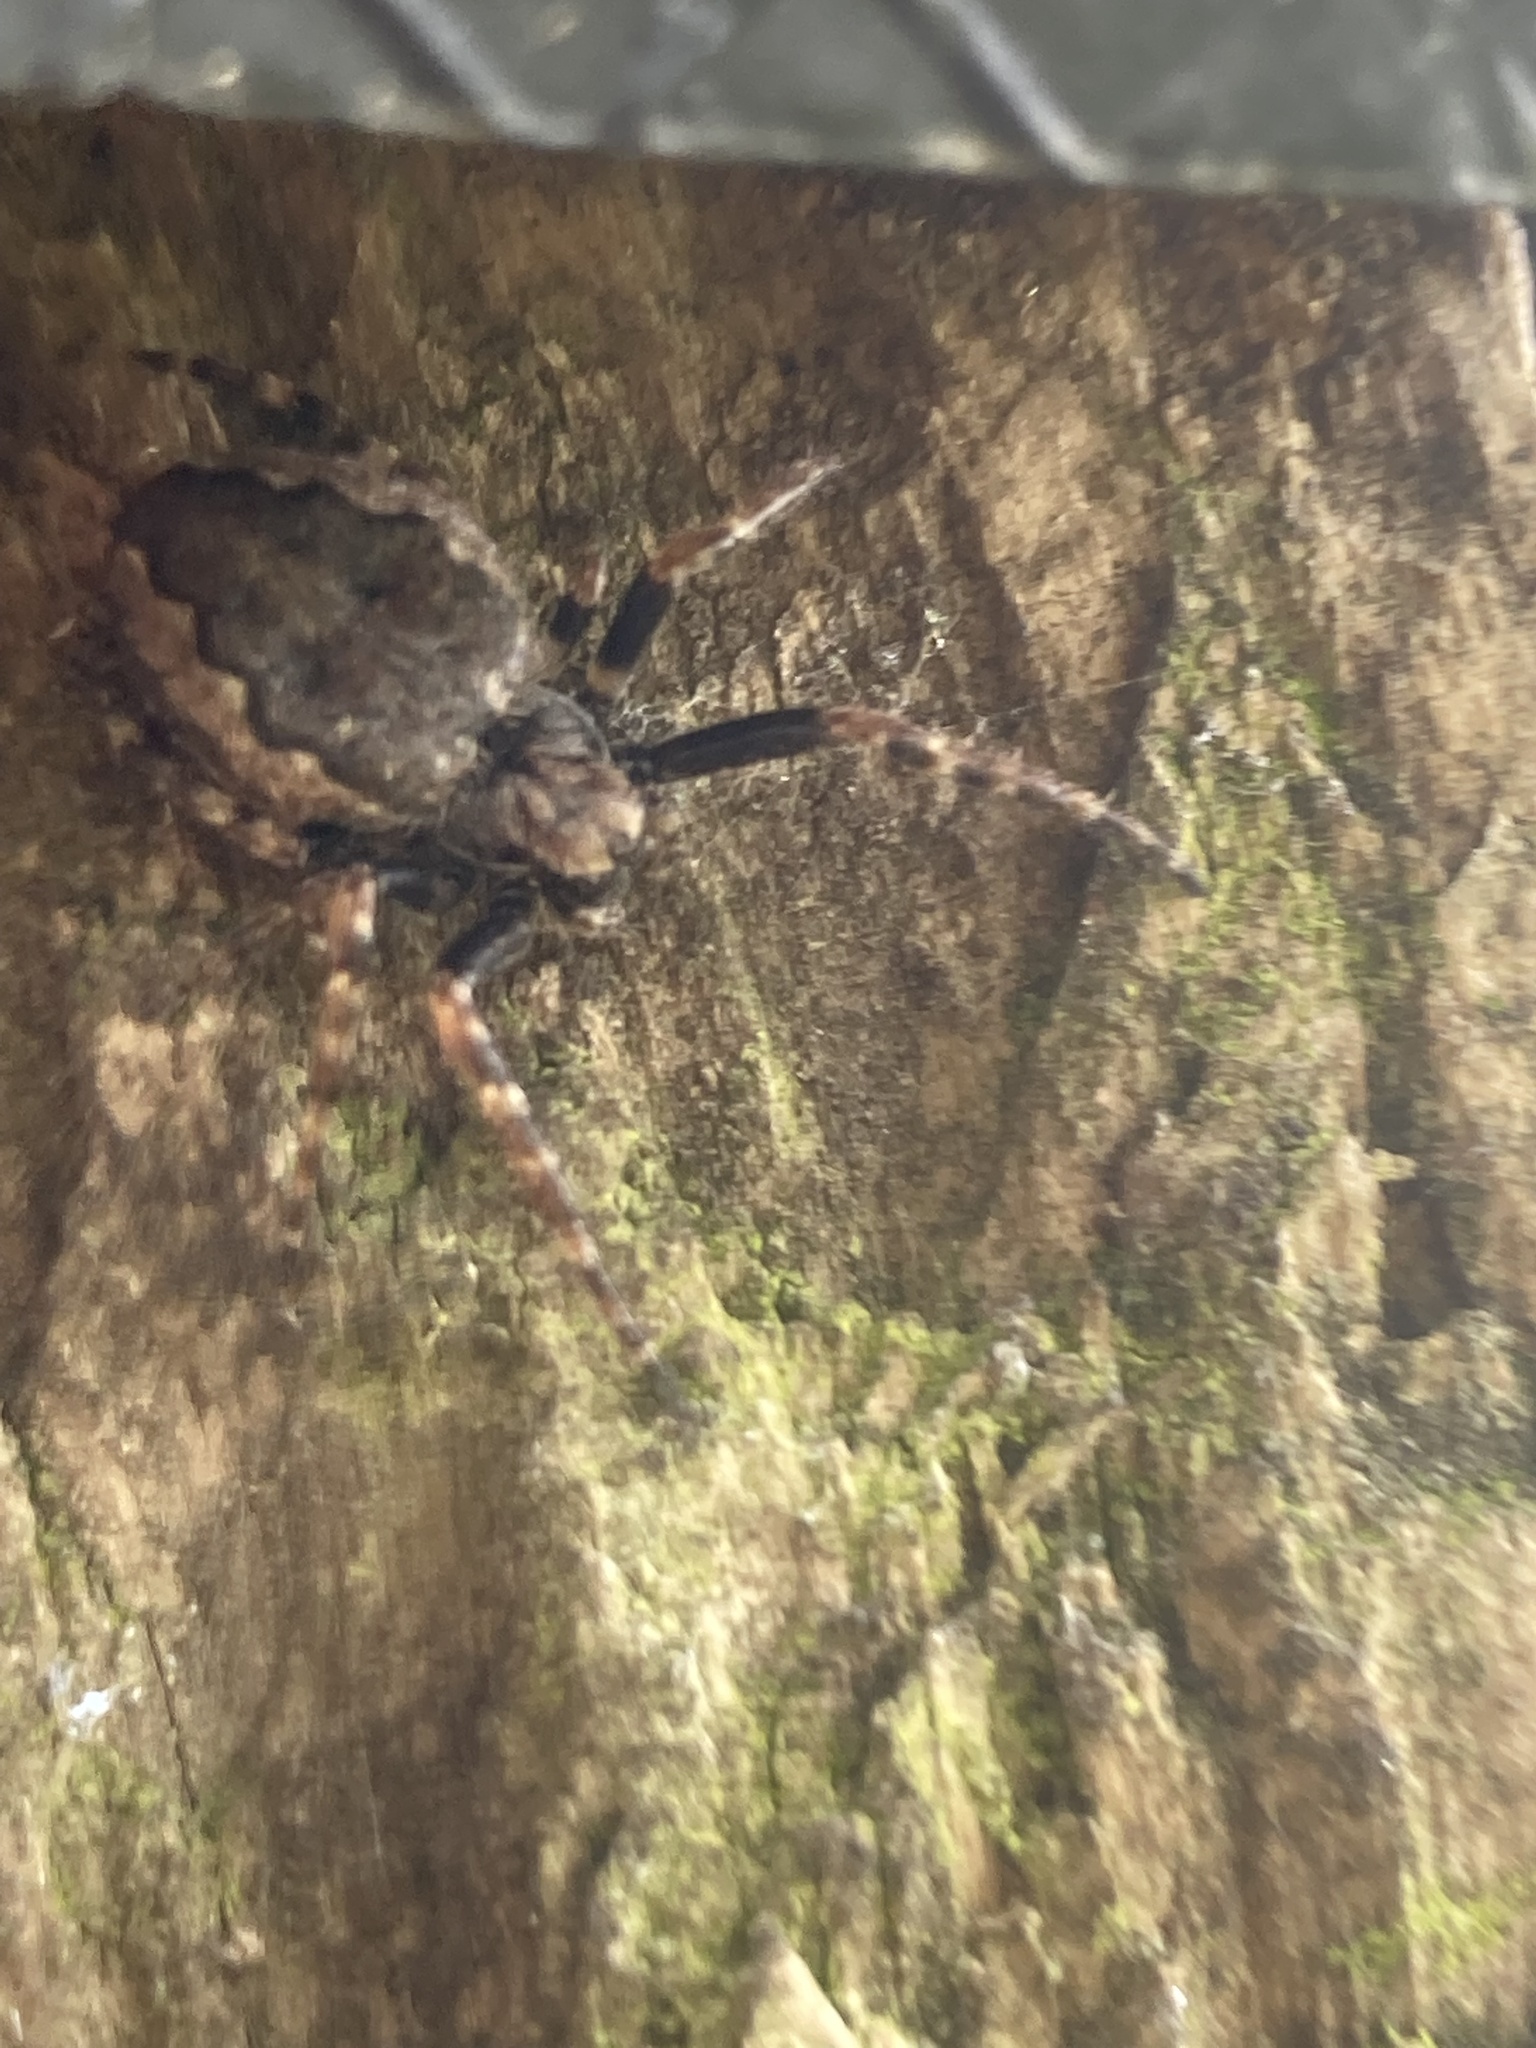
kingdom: Animalia
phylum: Arthropoda
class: Arachnida
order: Araneae
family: Araneidae
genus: Nuctenea
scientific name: Nuctenea umbratica
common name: Toad spider
